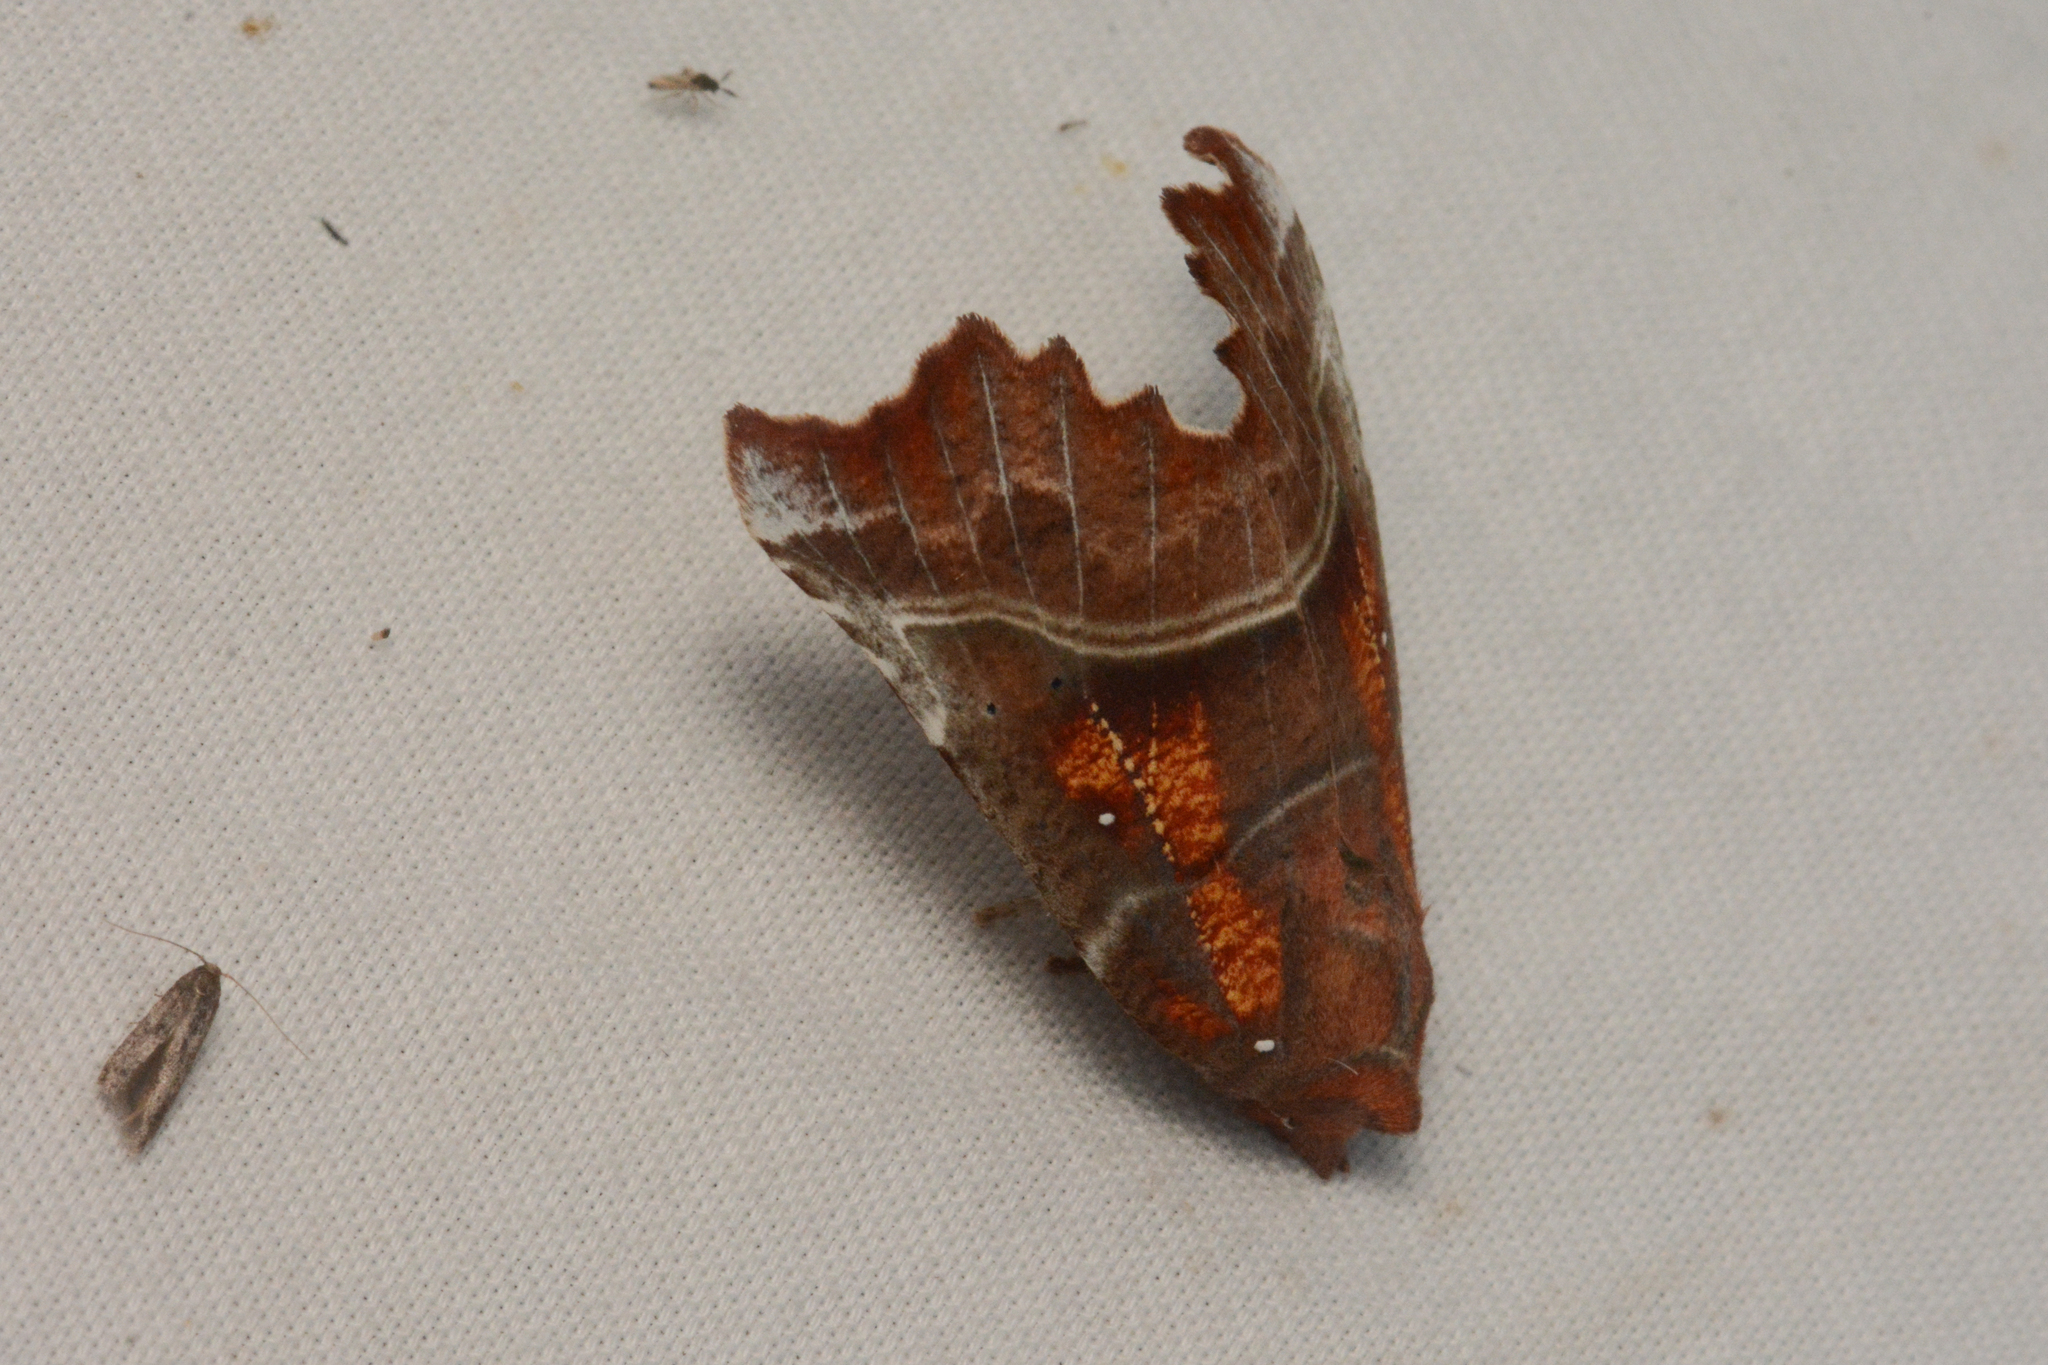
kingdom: Animalia
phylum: Arthropoda
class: Insecta
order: Lepidoptera
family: Erebidae
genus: Scoliopteryx
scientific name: Scoliopteryx libatrix
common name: Herald
